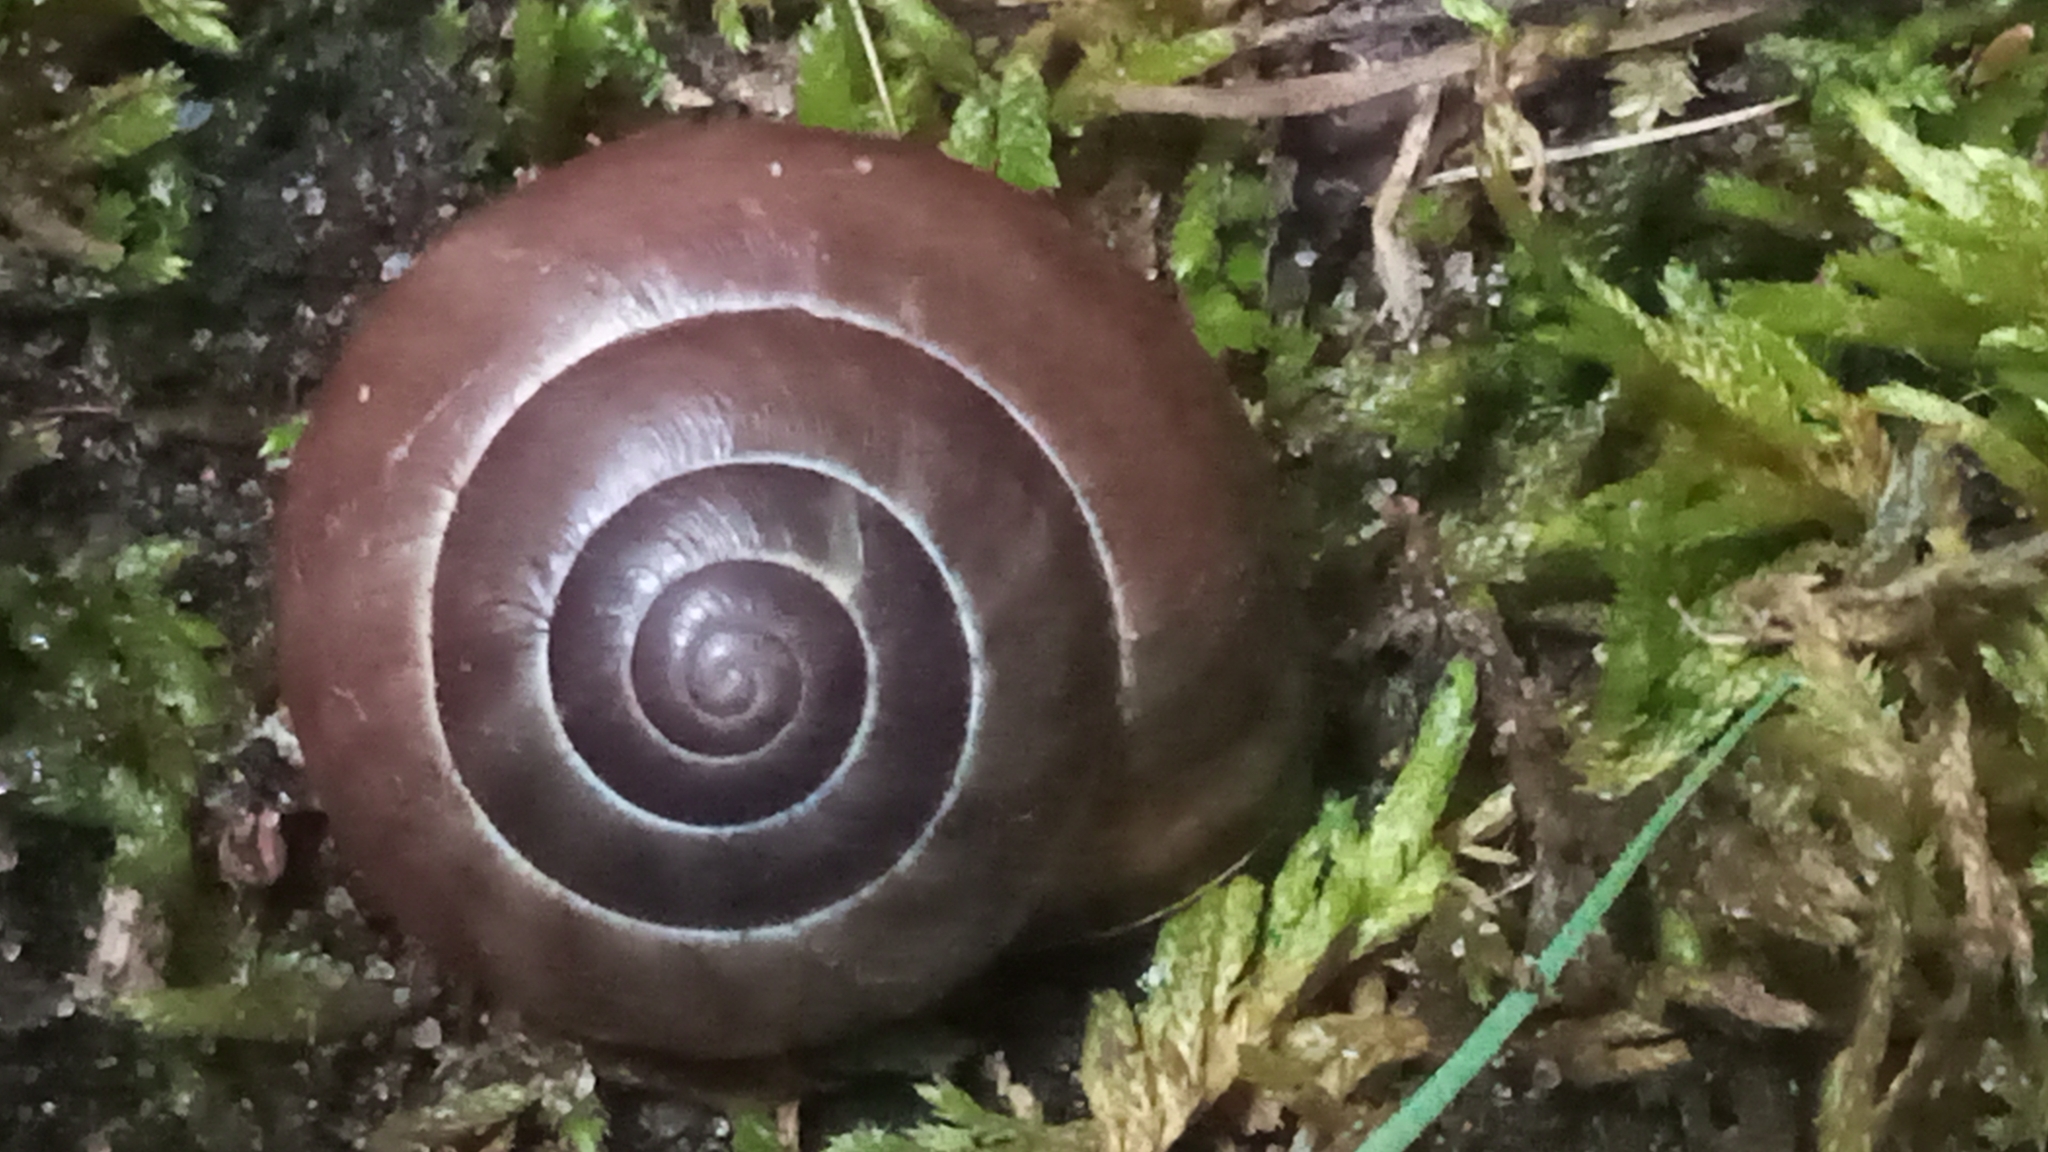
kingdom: Animalia
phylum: Mollusca
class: Gastropoda
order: Stylommatophora
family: Helicidae
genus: Cepaea
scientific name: Cepaea nemoralis
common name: Grovesnail
